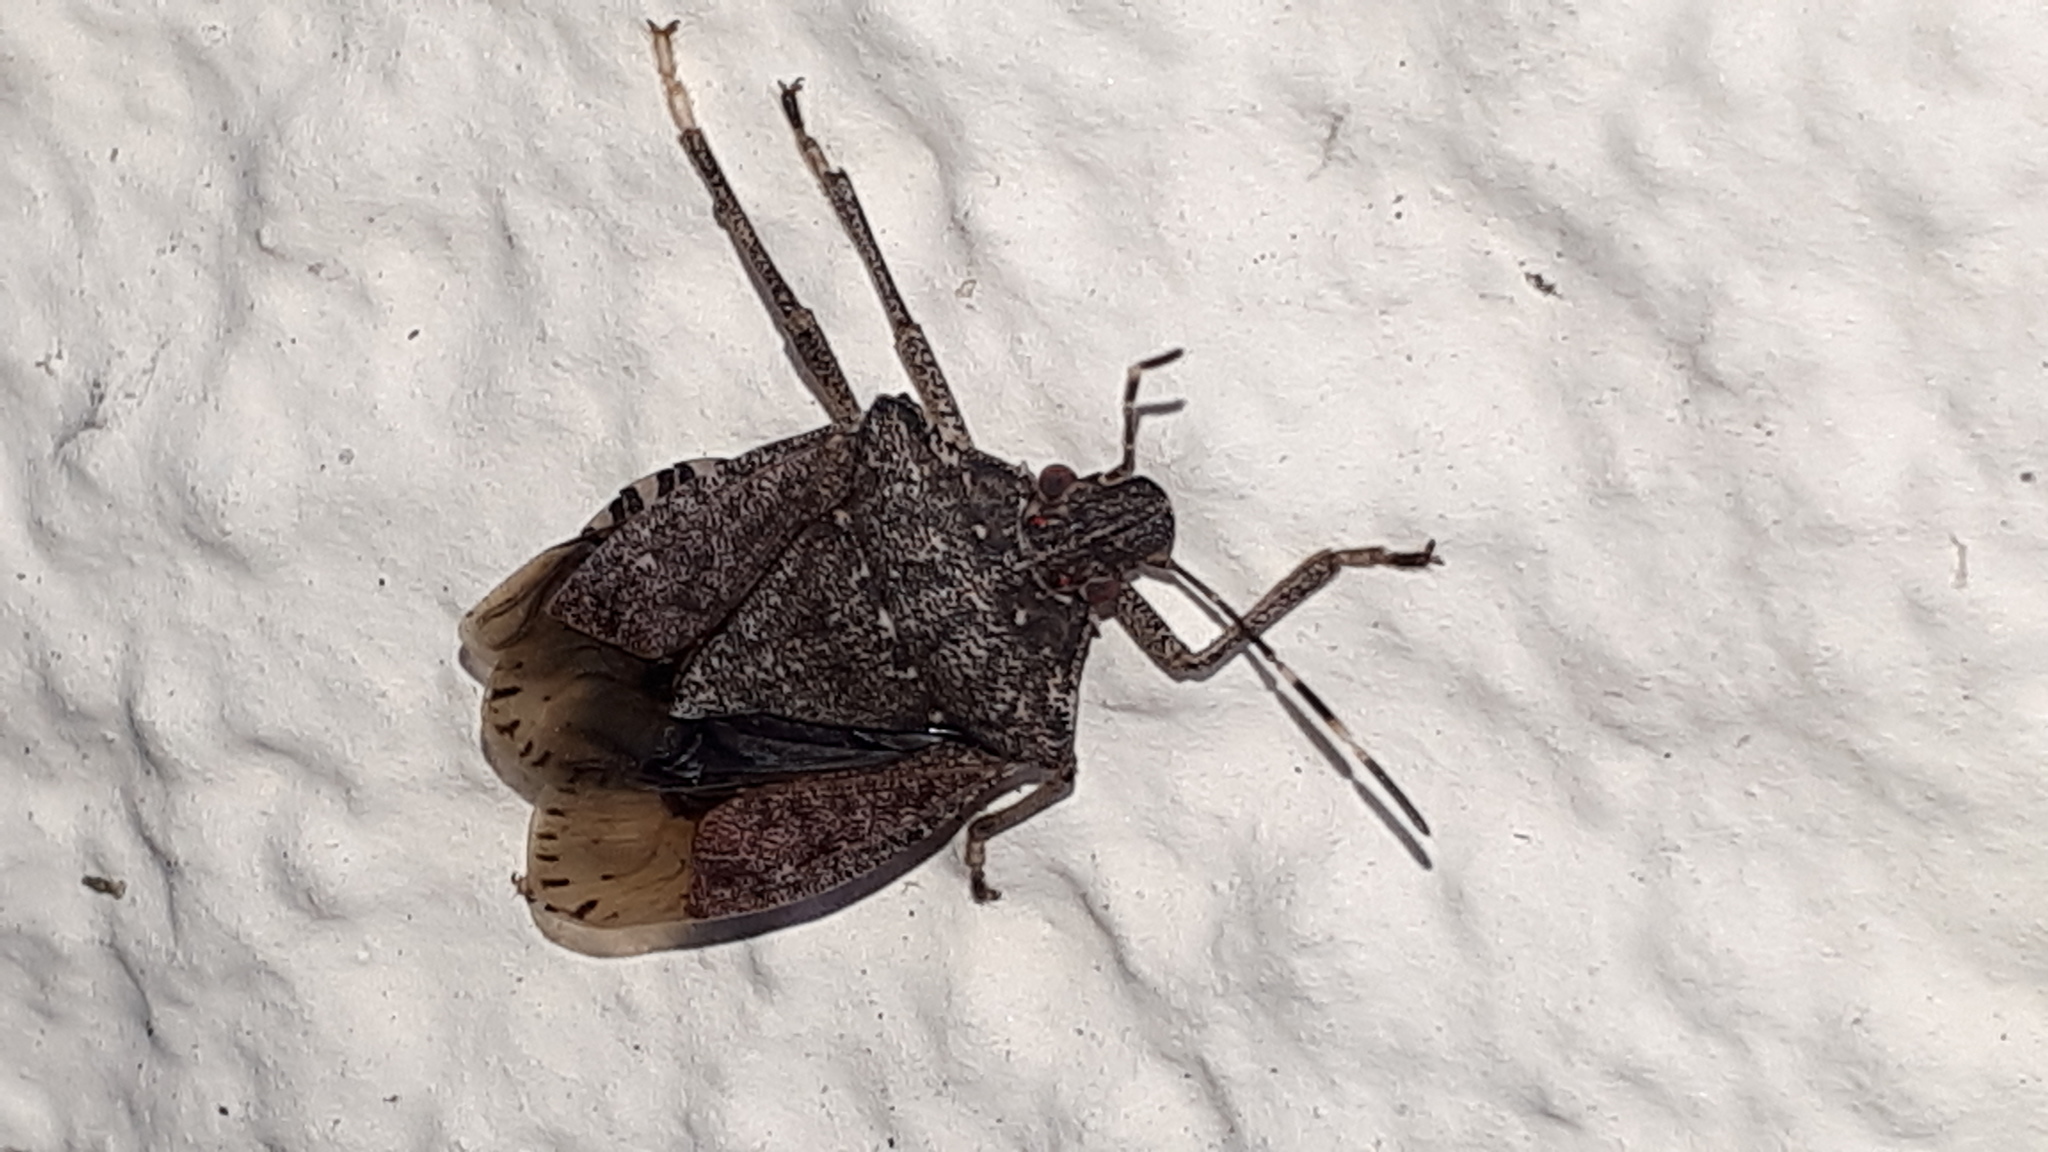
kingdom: Animalia
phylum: Arthropoda
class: Insecta
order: Hemiptera
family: Pentatomidae
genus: Halyomorpha
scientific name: Halyomorpha halys
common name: Brown marmorated stink bug
